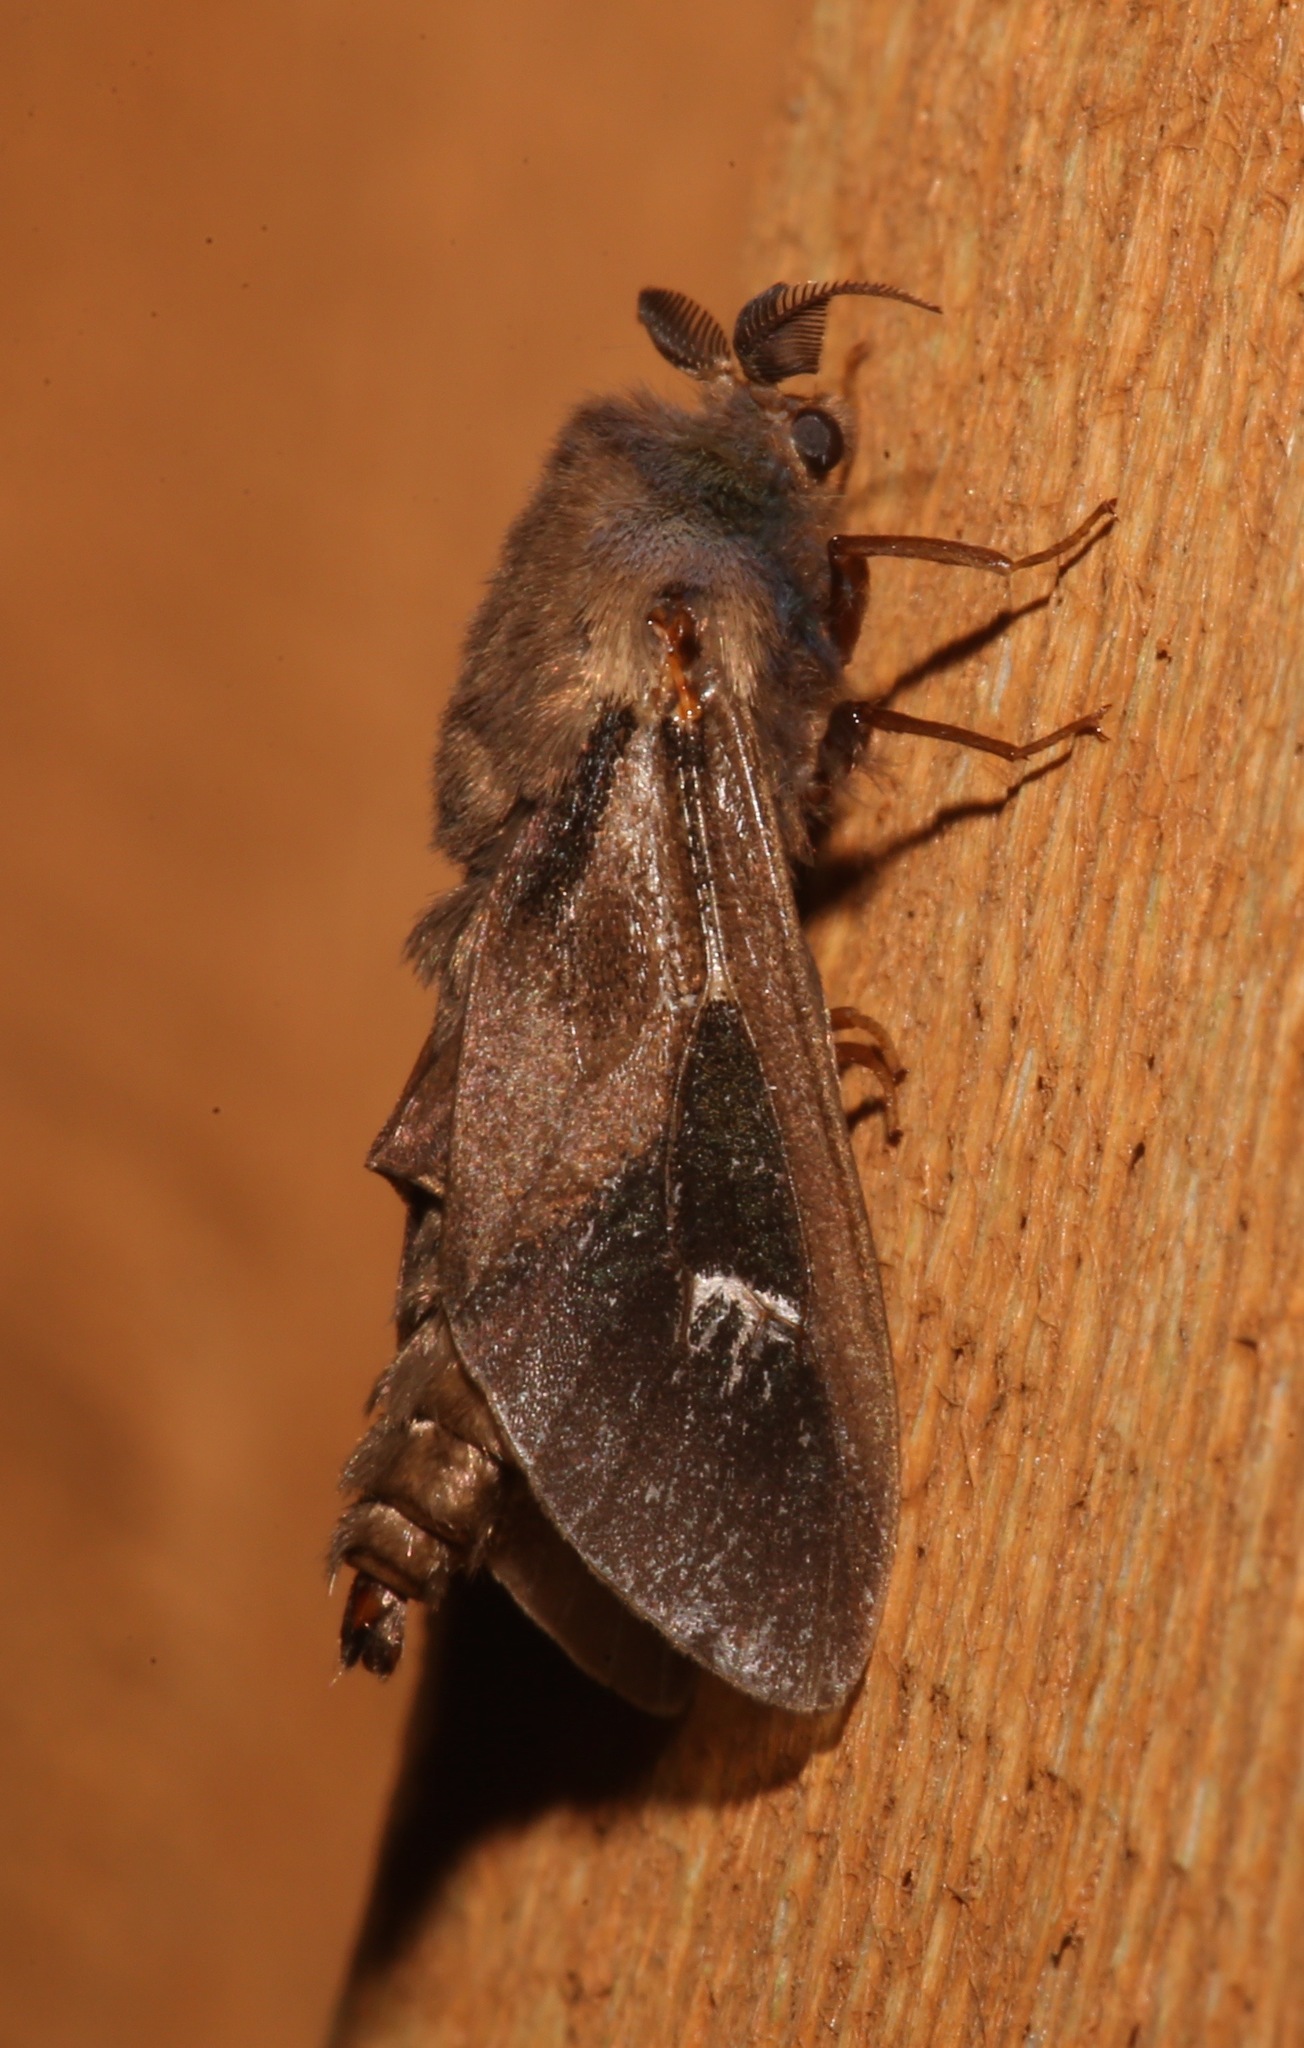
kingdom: Animalia
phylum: Arthropoda
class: Insecta
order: Lepidoptera
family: Psychidae
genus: Oiketicus
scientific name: Oiketicus
